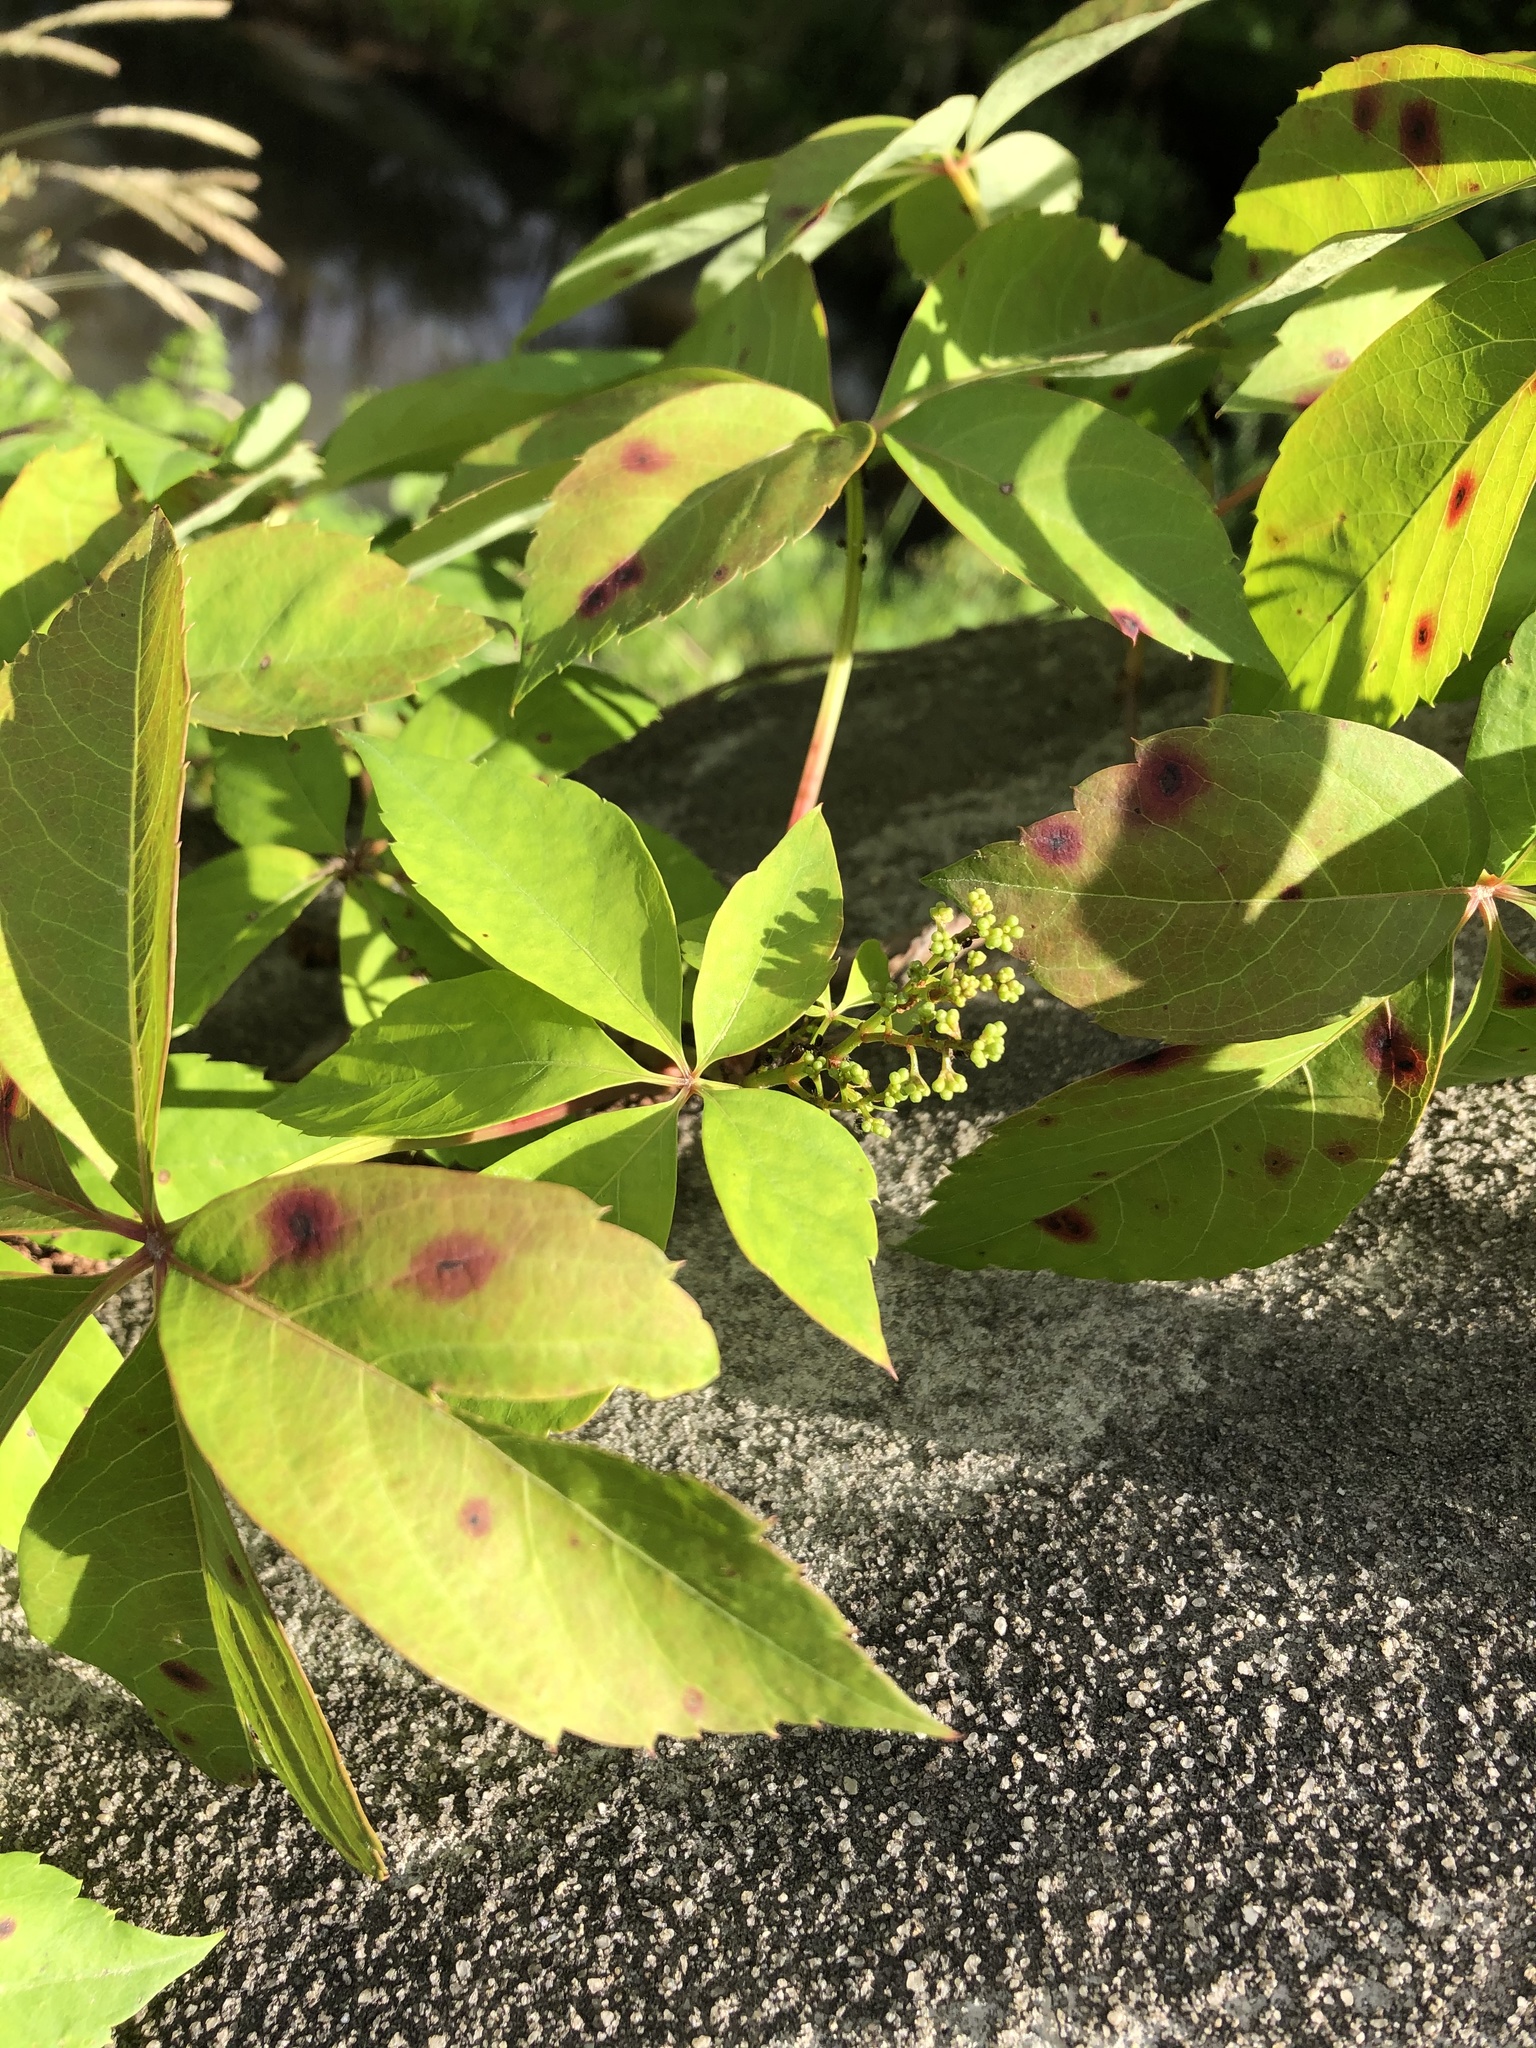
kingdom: Plantae
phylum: Tracheophyta
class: Magnoliopsida
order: Vitales
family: Vitaceae
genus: Parthenocissus
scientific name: Parthenocissus quinquefolia
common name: Virginia-creeper
